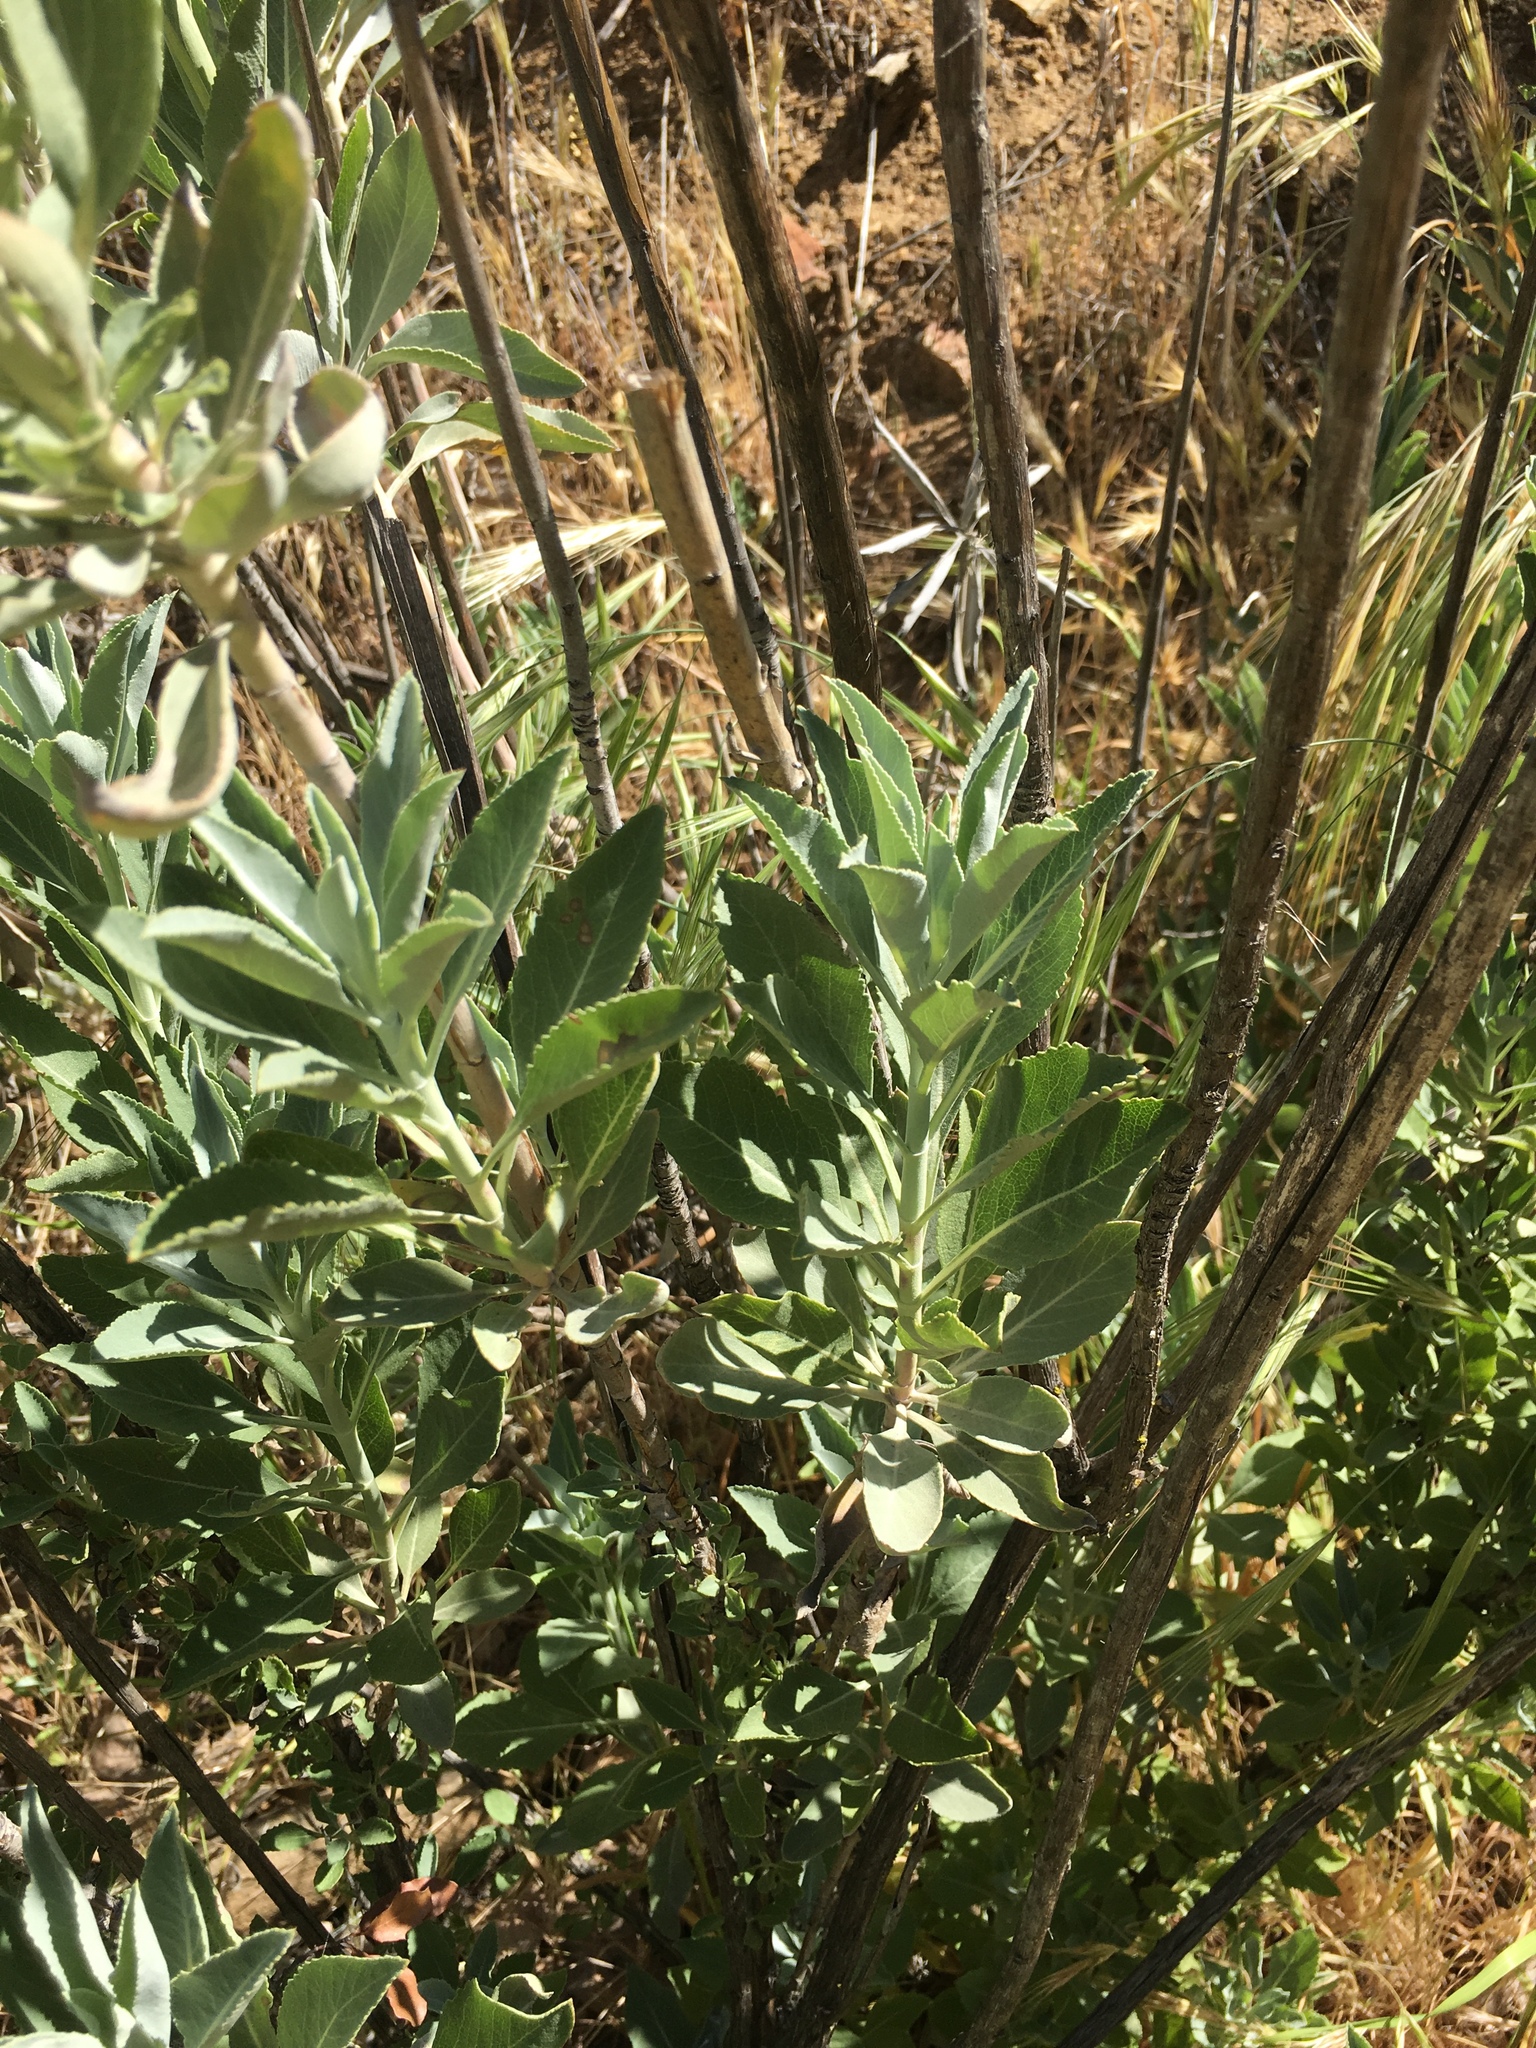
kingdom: Plantae
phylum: Tracheophyta
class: Magnoliopsida
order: Lamiales
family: Lamiaceae
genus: Salvia
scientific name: Salvia apiana
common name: White sage
